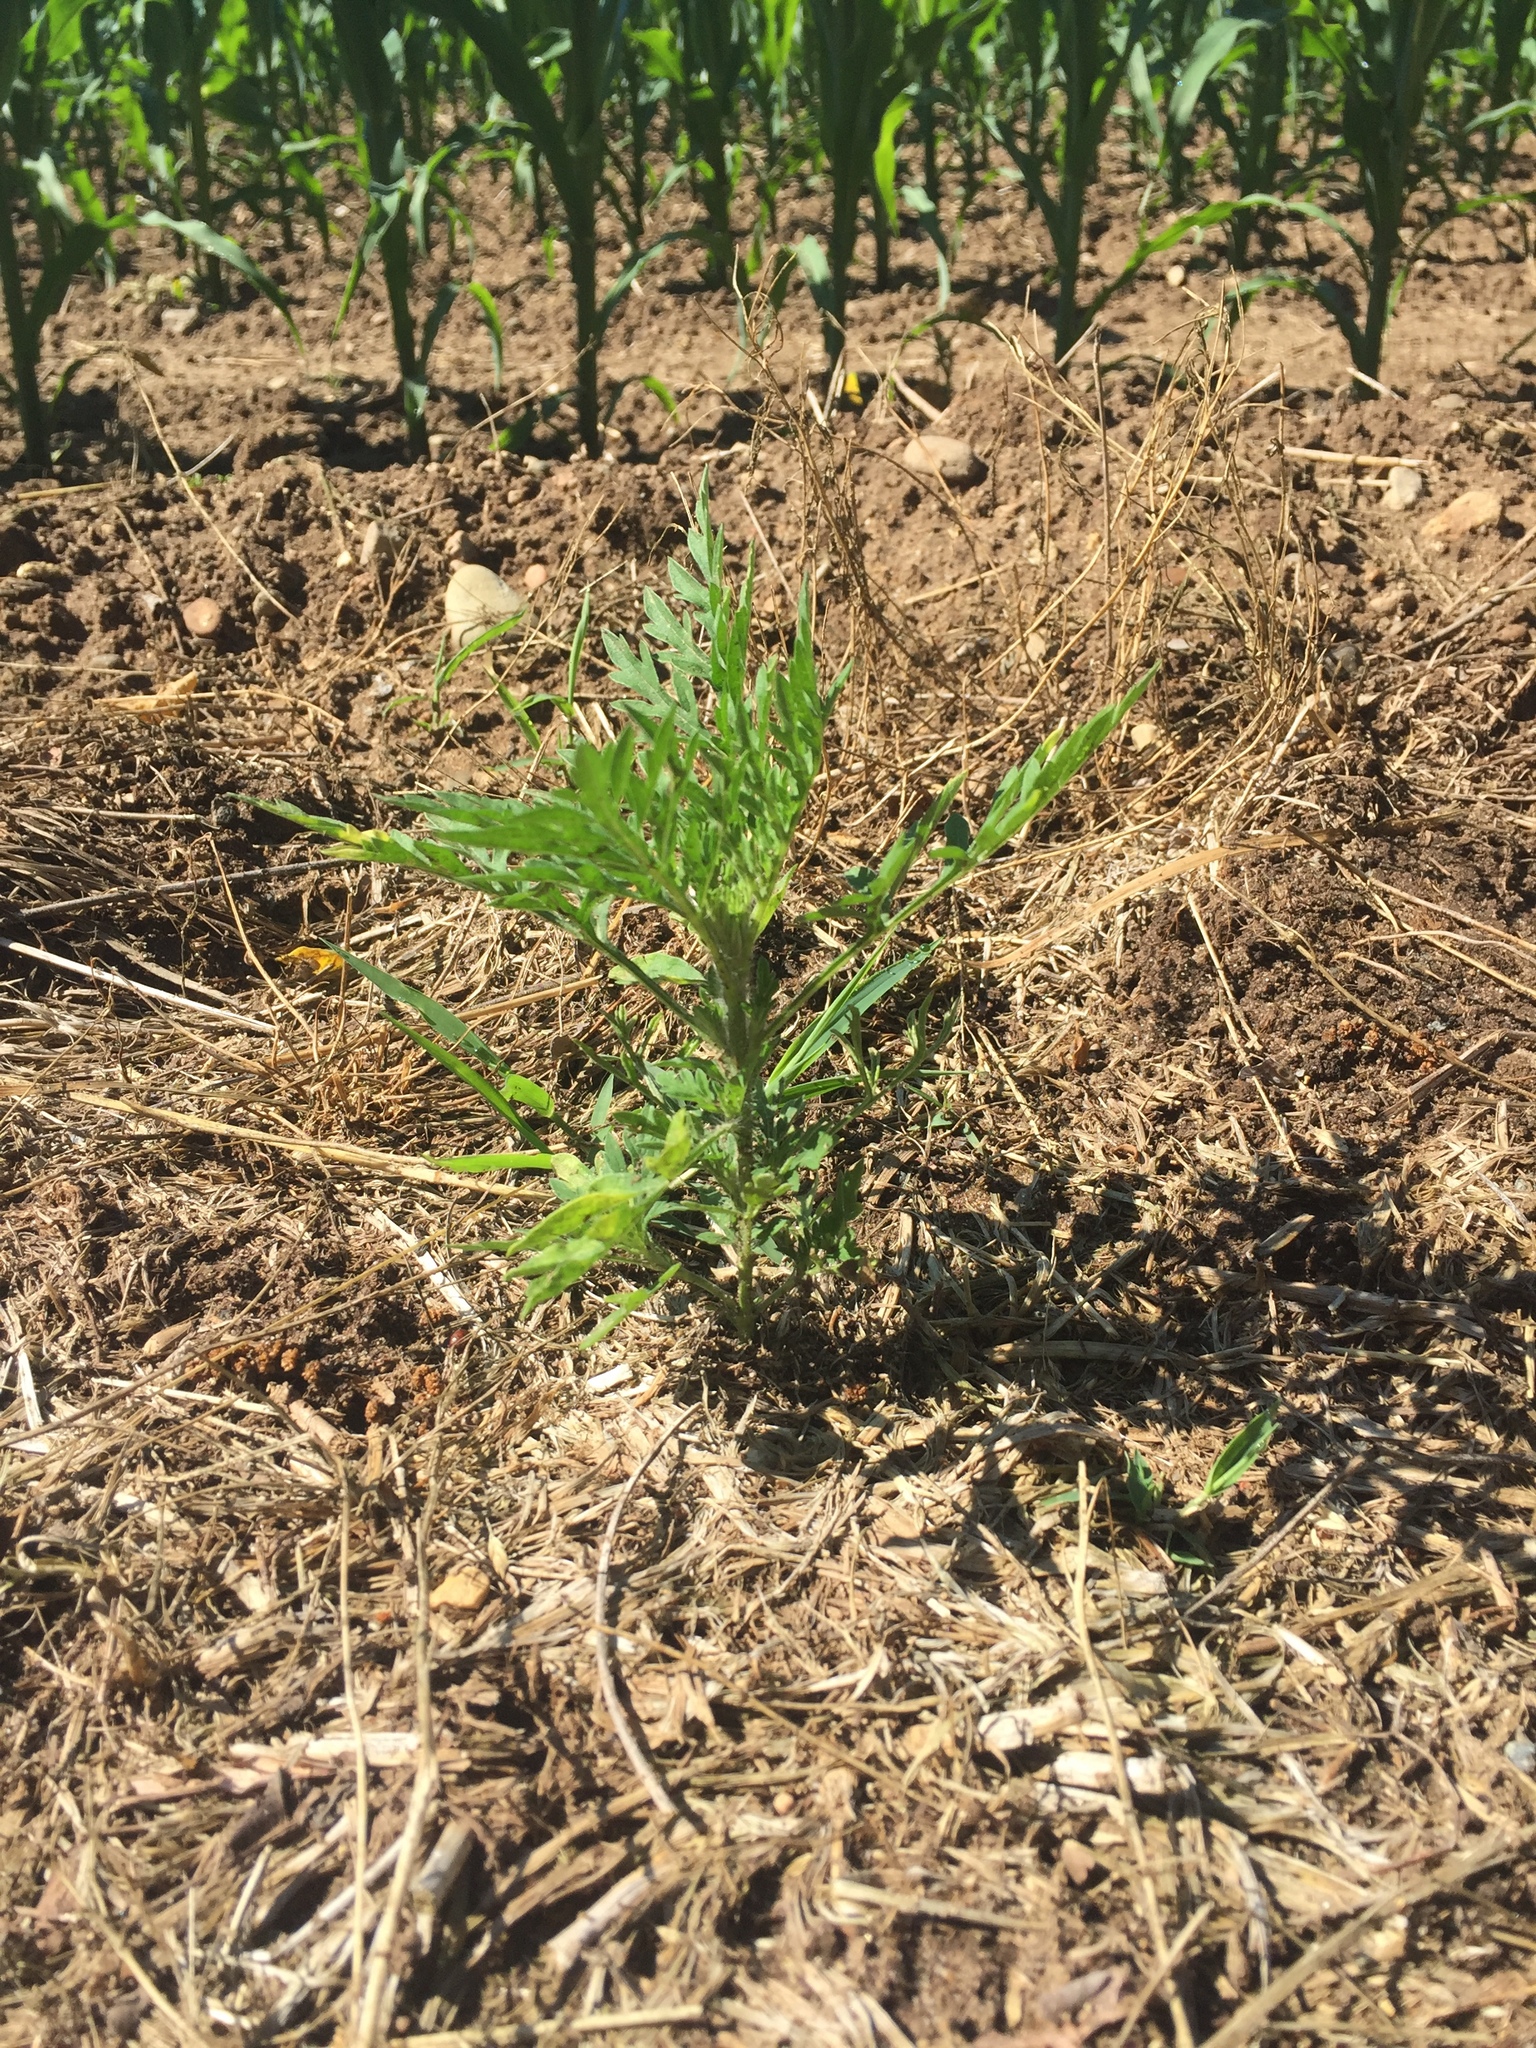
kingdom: Plantae
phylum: Tracheophyta
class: Magnoliopsida
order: Asterales
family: Asteraceae
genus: Ambrosia
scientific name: Ambrosia artemisiifolia
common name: Annual ragweed
